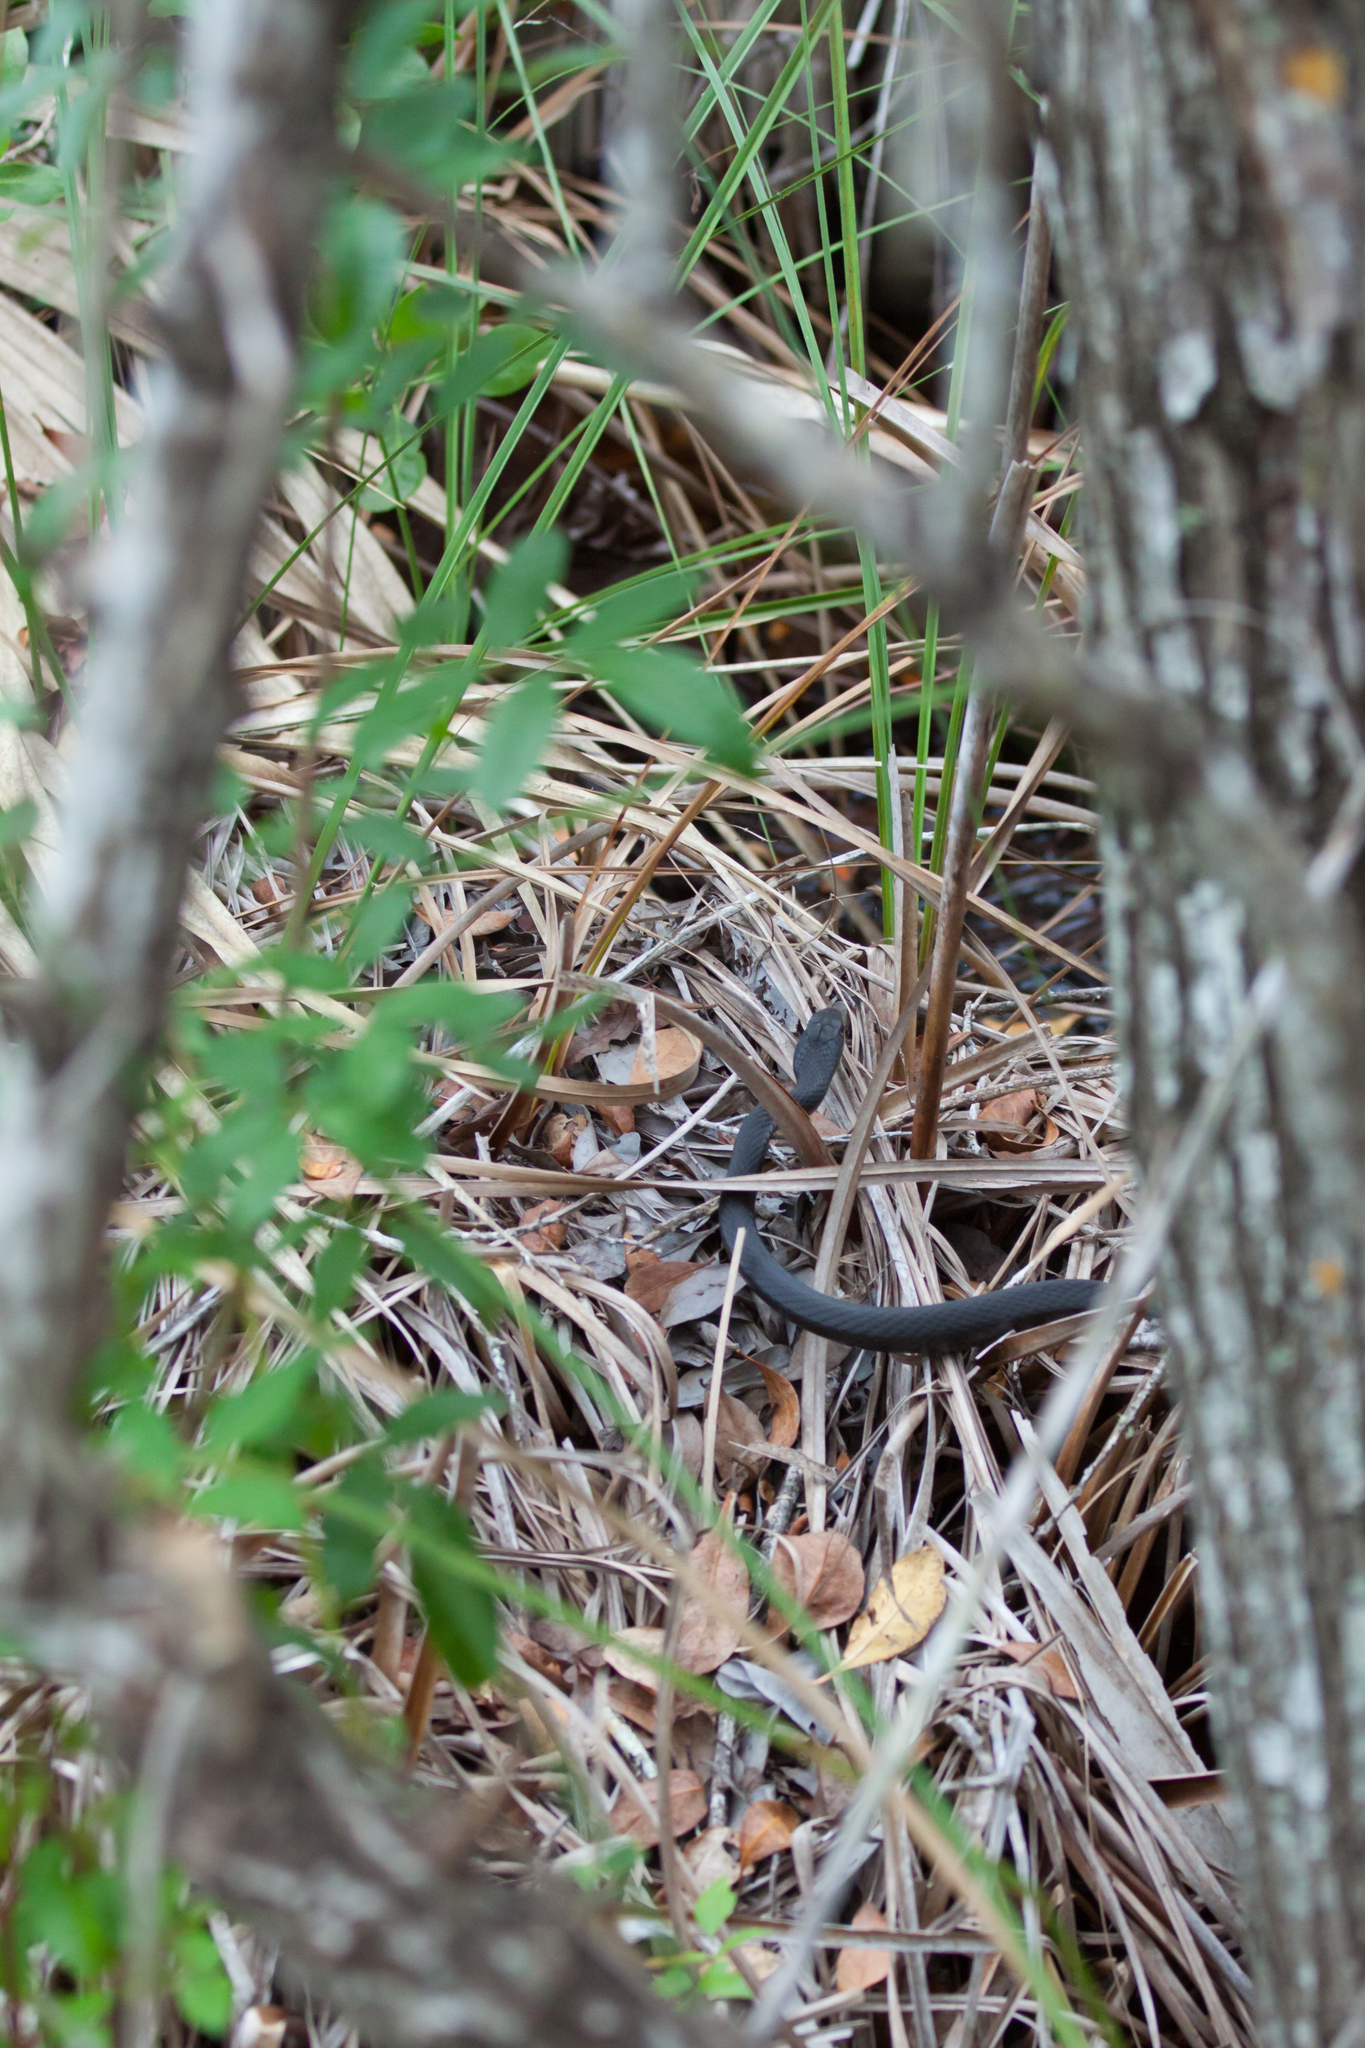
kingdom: Animalia
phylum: Chordata
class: Squamata
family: Colubridae
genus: Coluber
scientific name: Coluber constrictor
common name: Eastern racer
